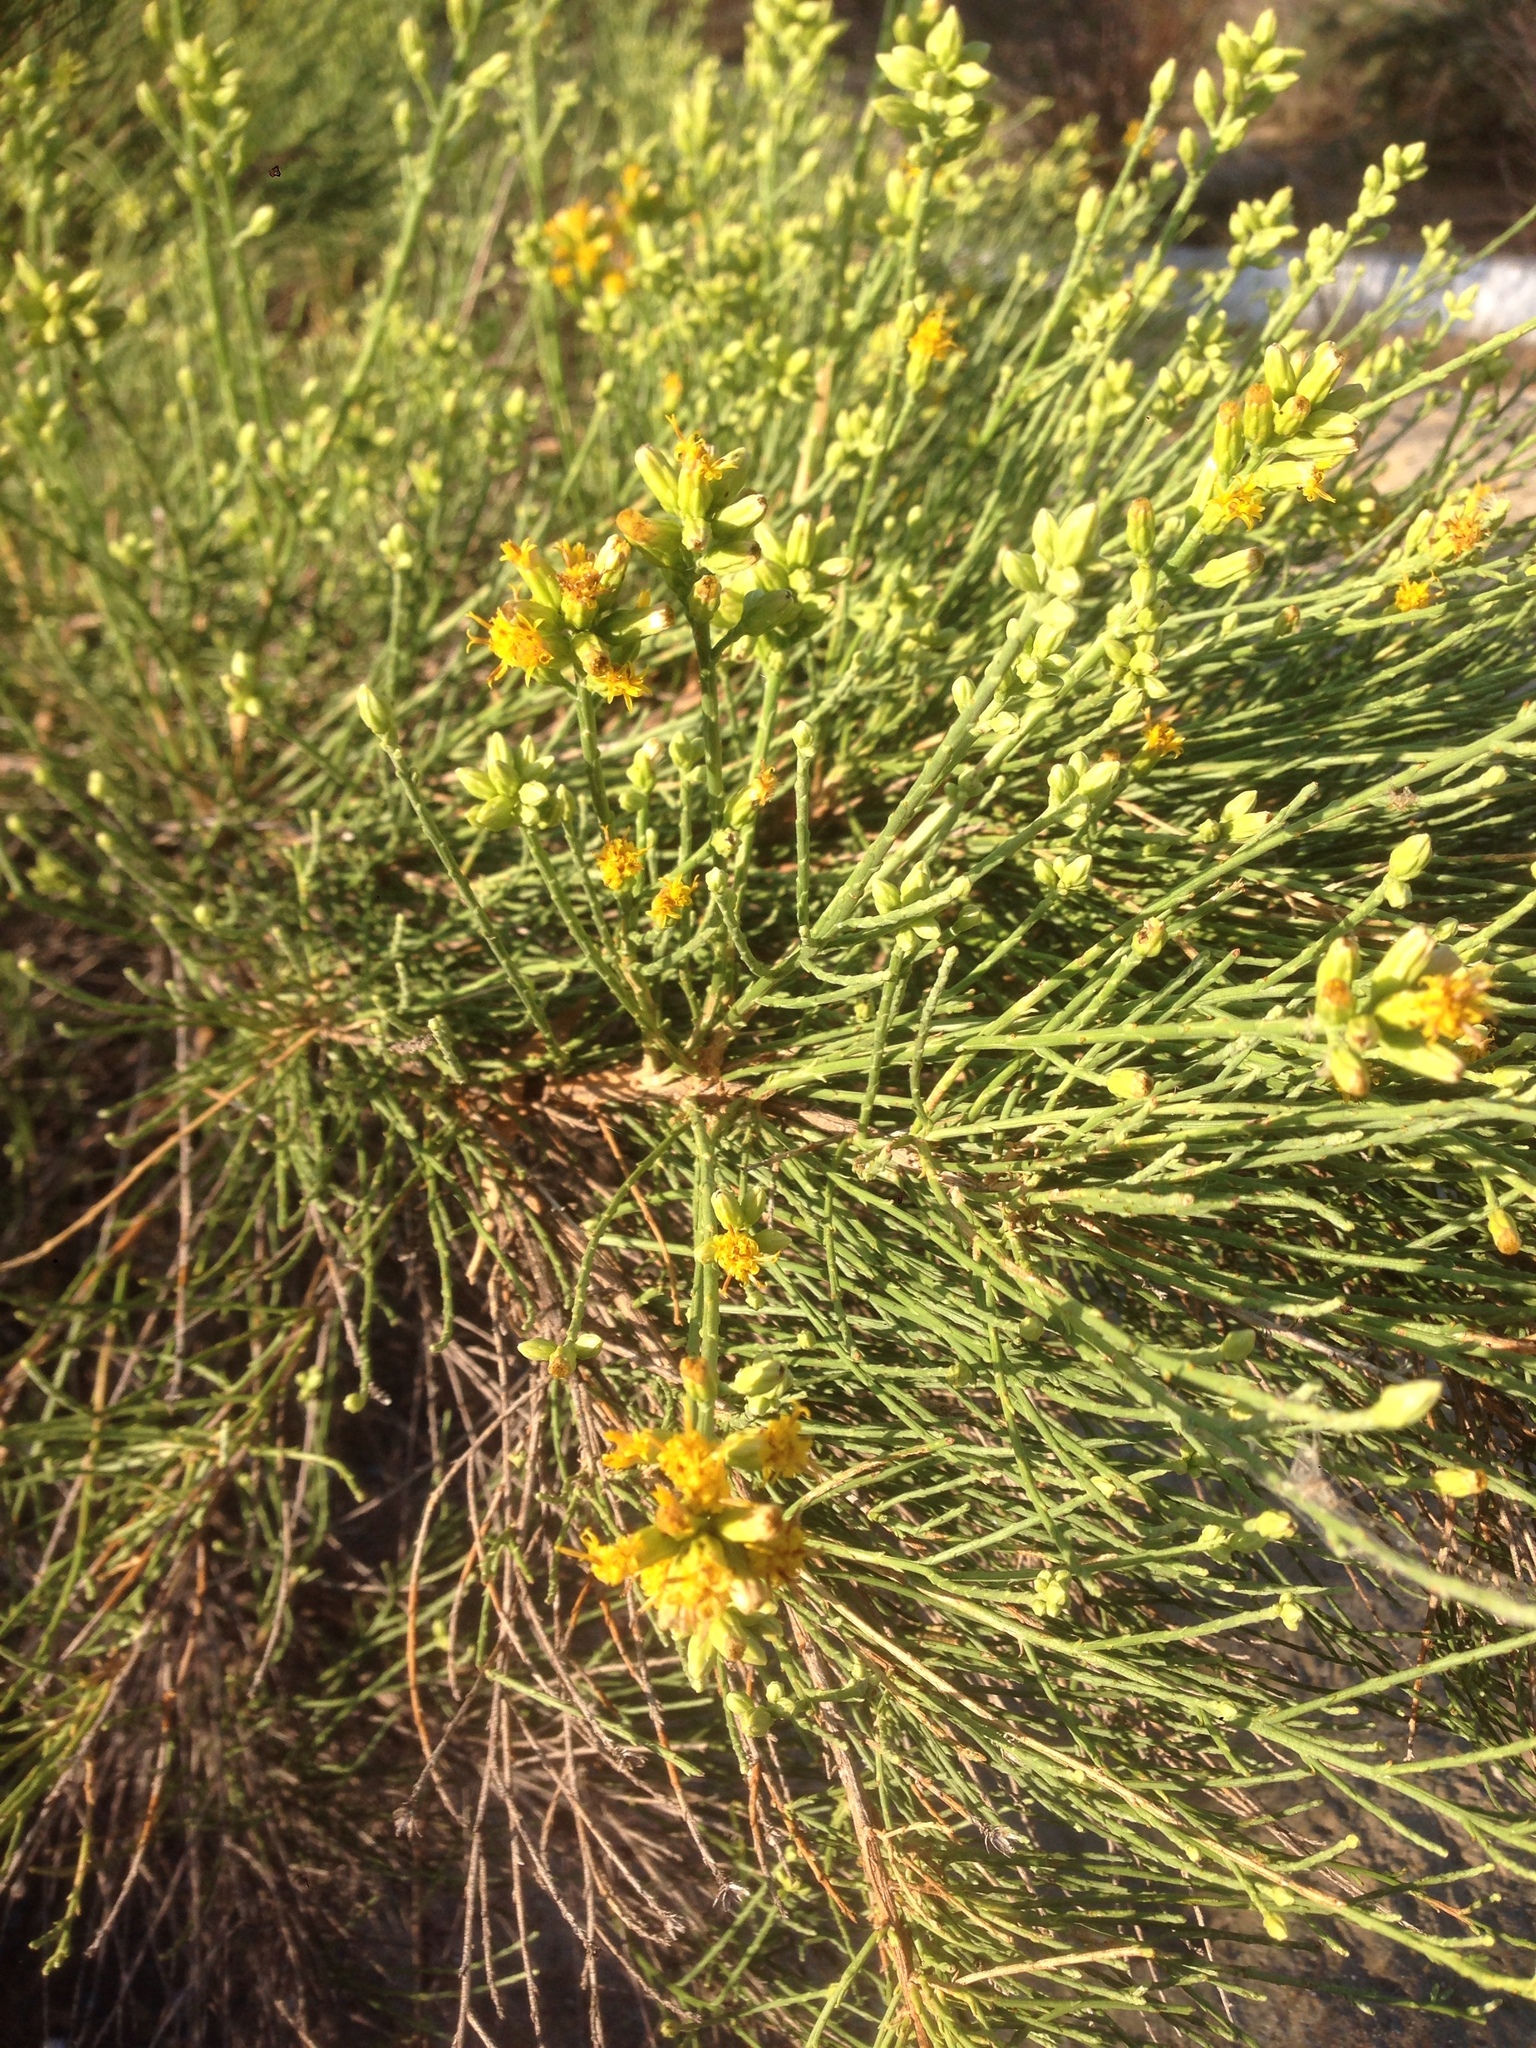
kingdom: Plantae
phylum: Tracheophyta
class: Magnoliopsida
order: Asterales
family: Asteraceae
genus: Lepidospartum
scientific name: Lepidospartum squamatum
